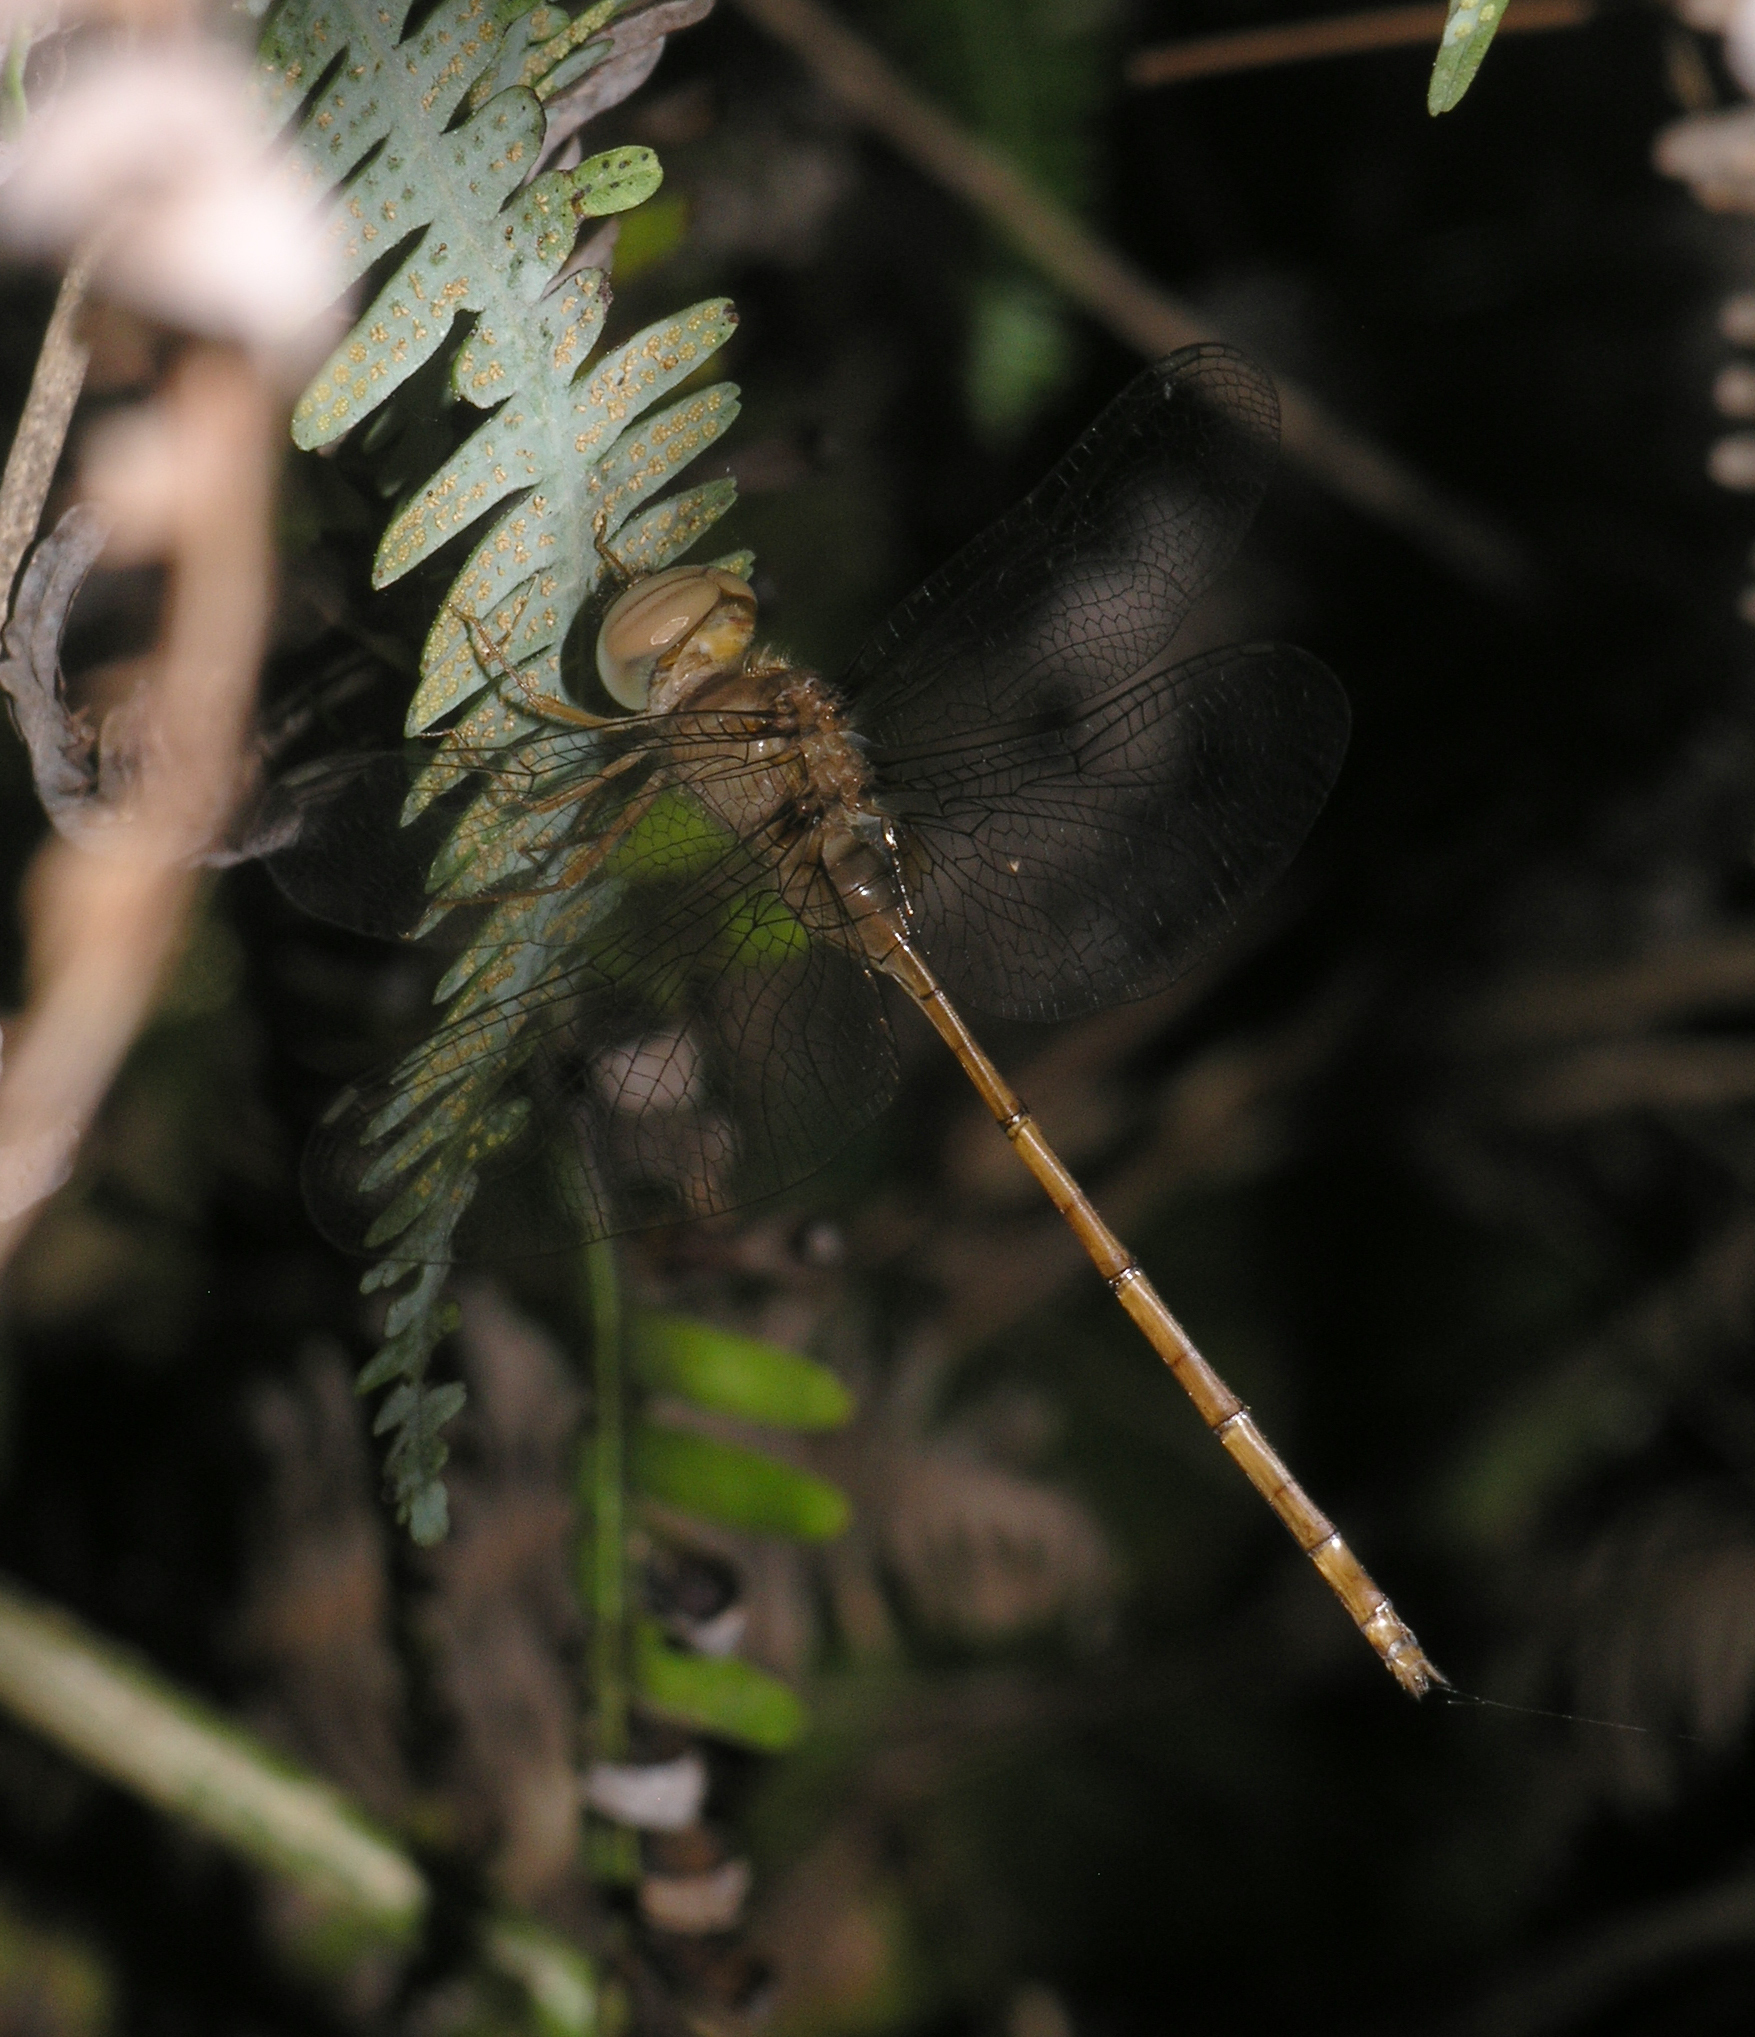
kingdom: Animalia
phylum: Arthropoda
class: Insecta
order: Odonata
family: Libellulidae
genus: Zyxomma
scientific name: Zyxomma petiolatum
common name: Dingy dusk-darter
